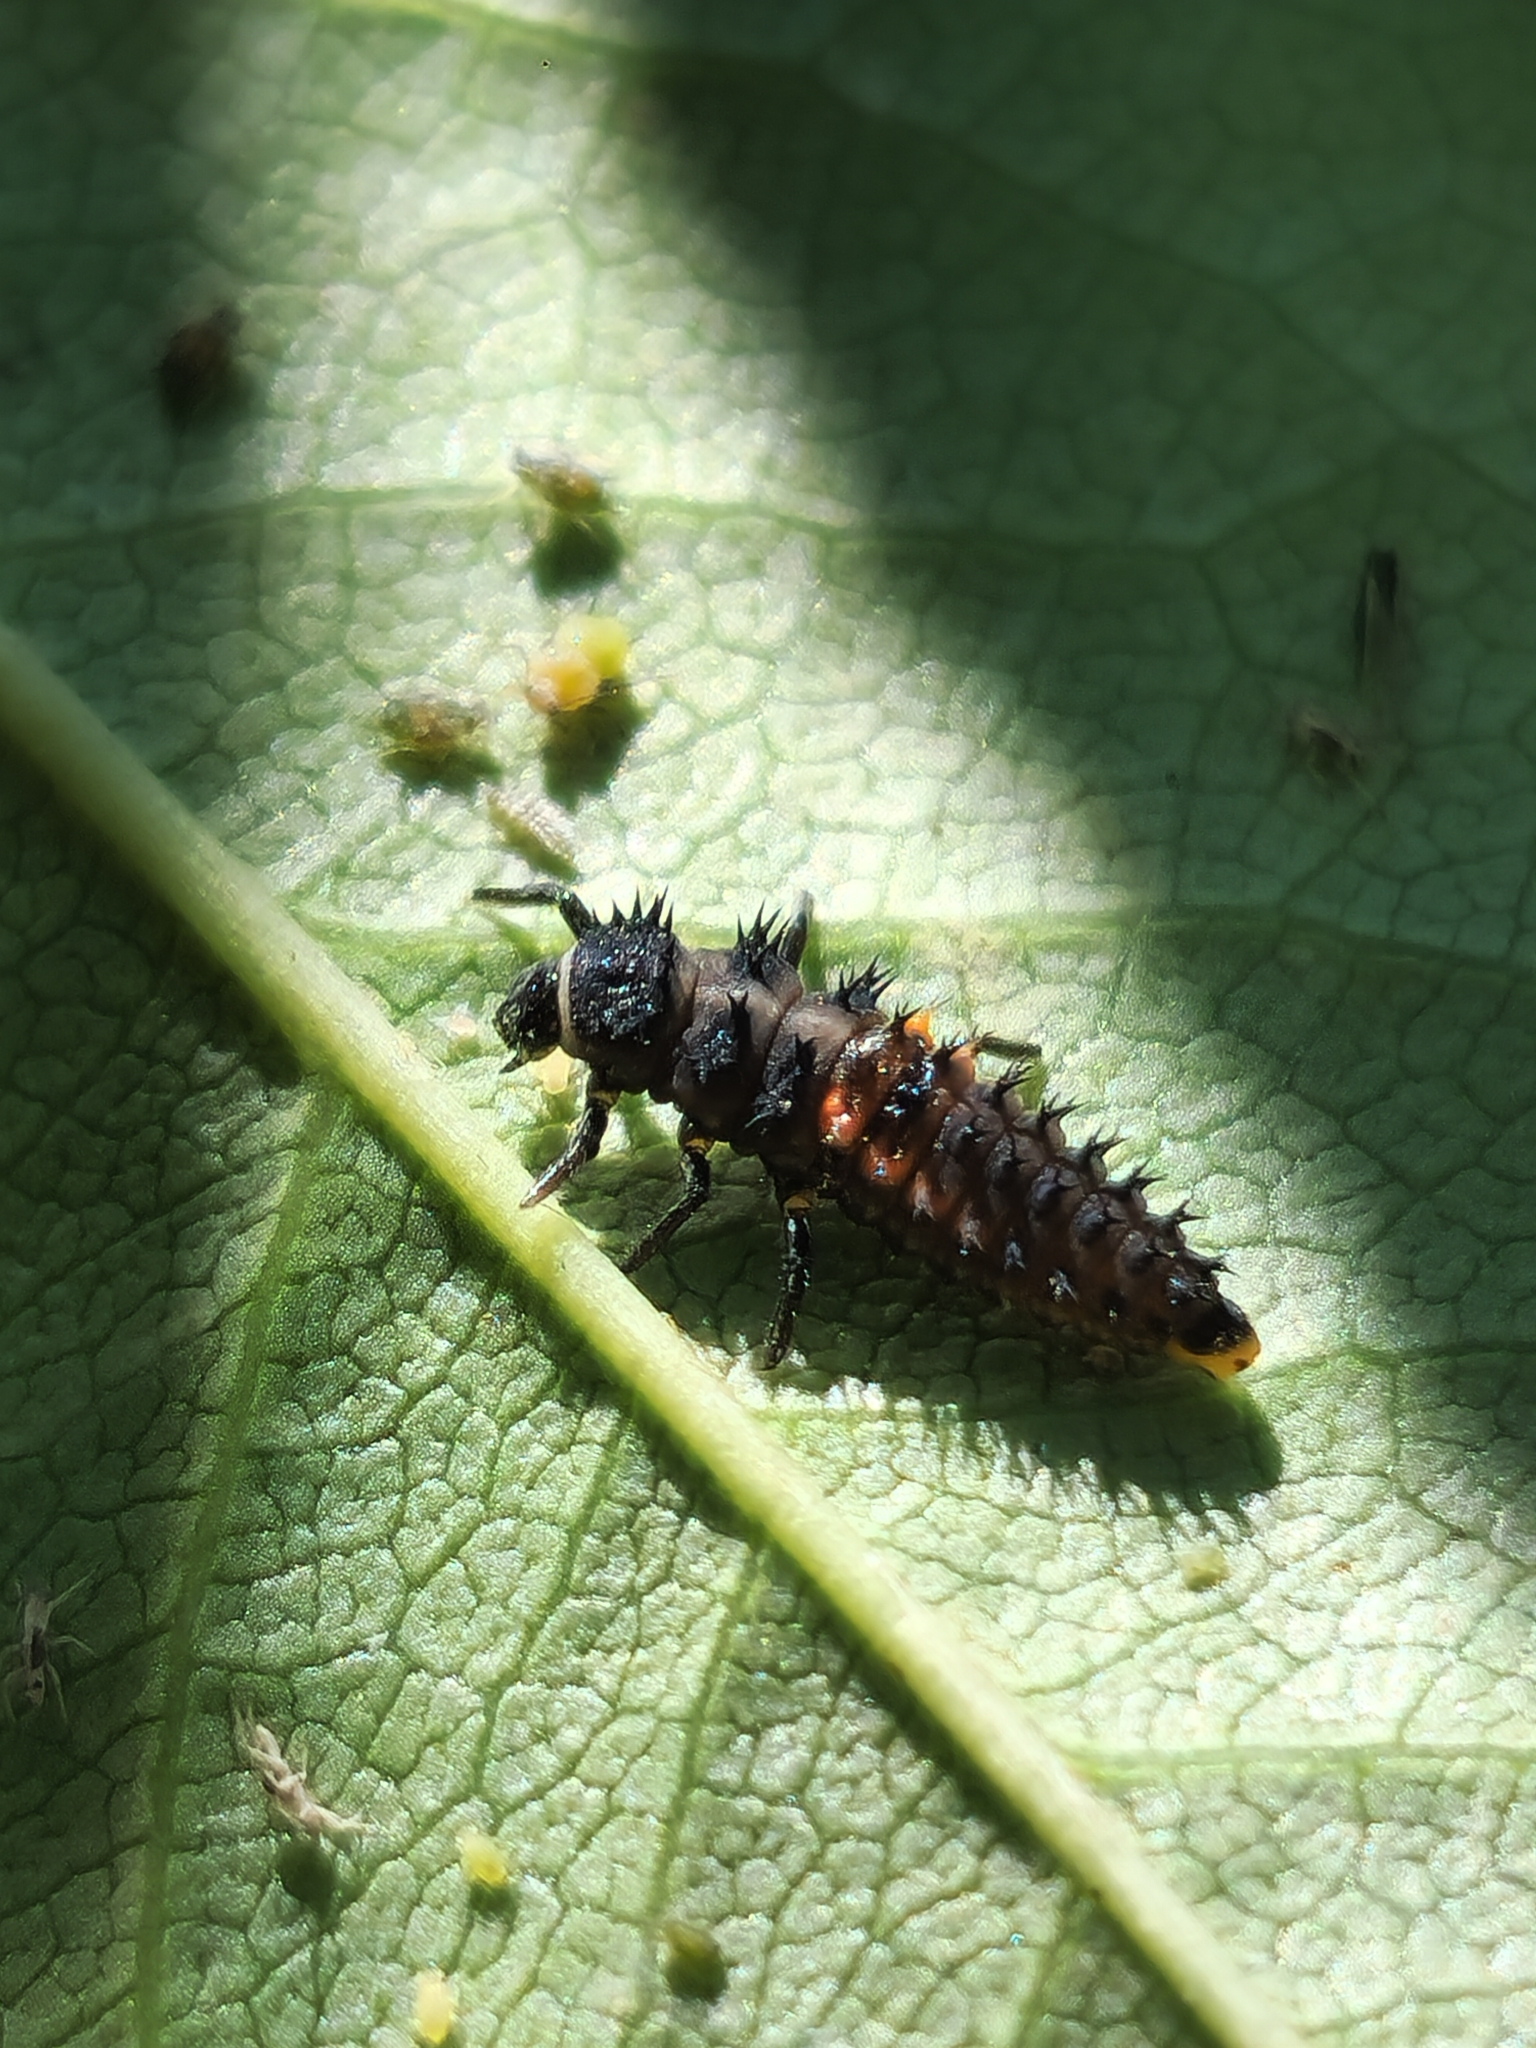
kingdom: Animalia
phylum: Arthropoda
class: Insecta
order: Coleoptera
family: Coccinellidae
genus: Harmonia
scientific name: Harmonia axyridis
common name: Harlequin ladybird
